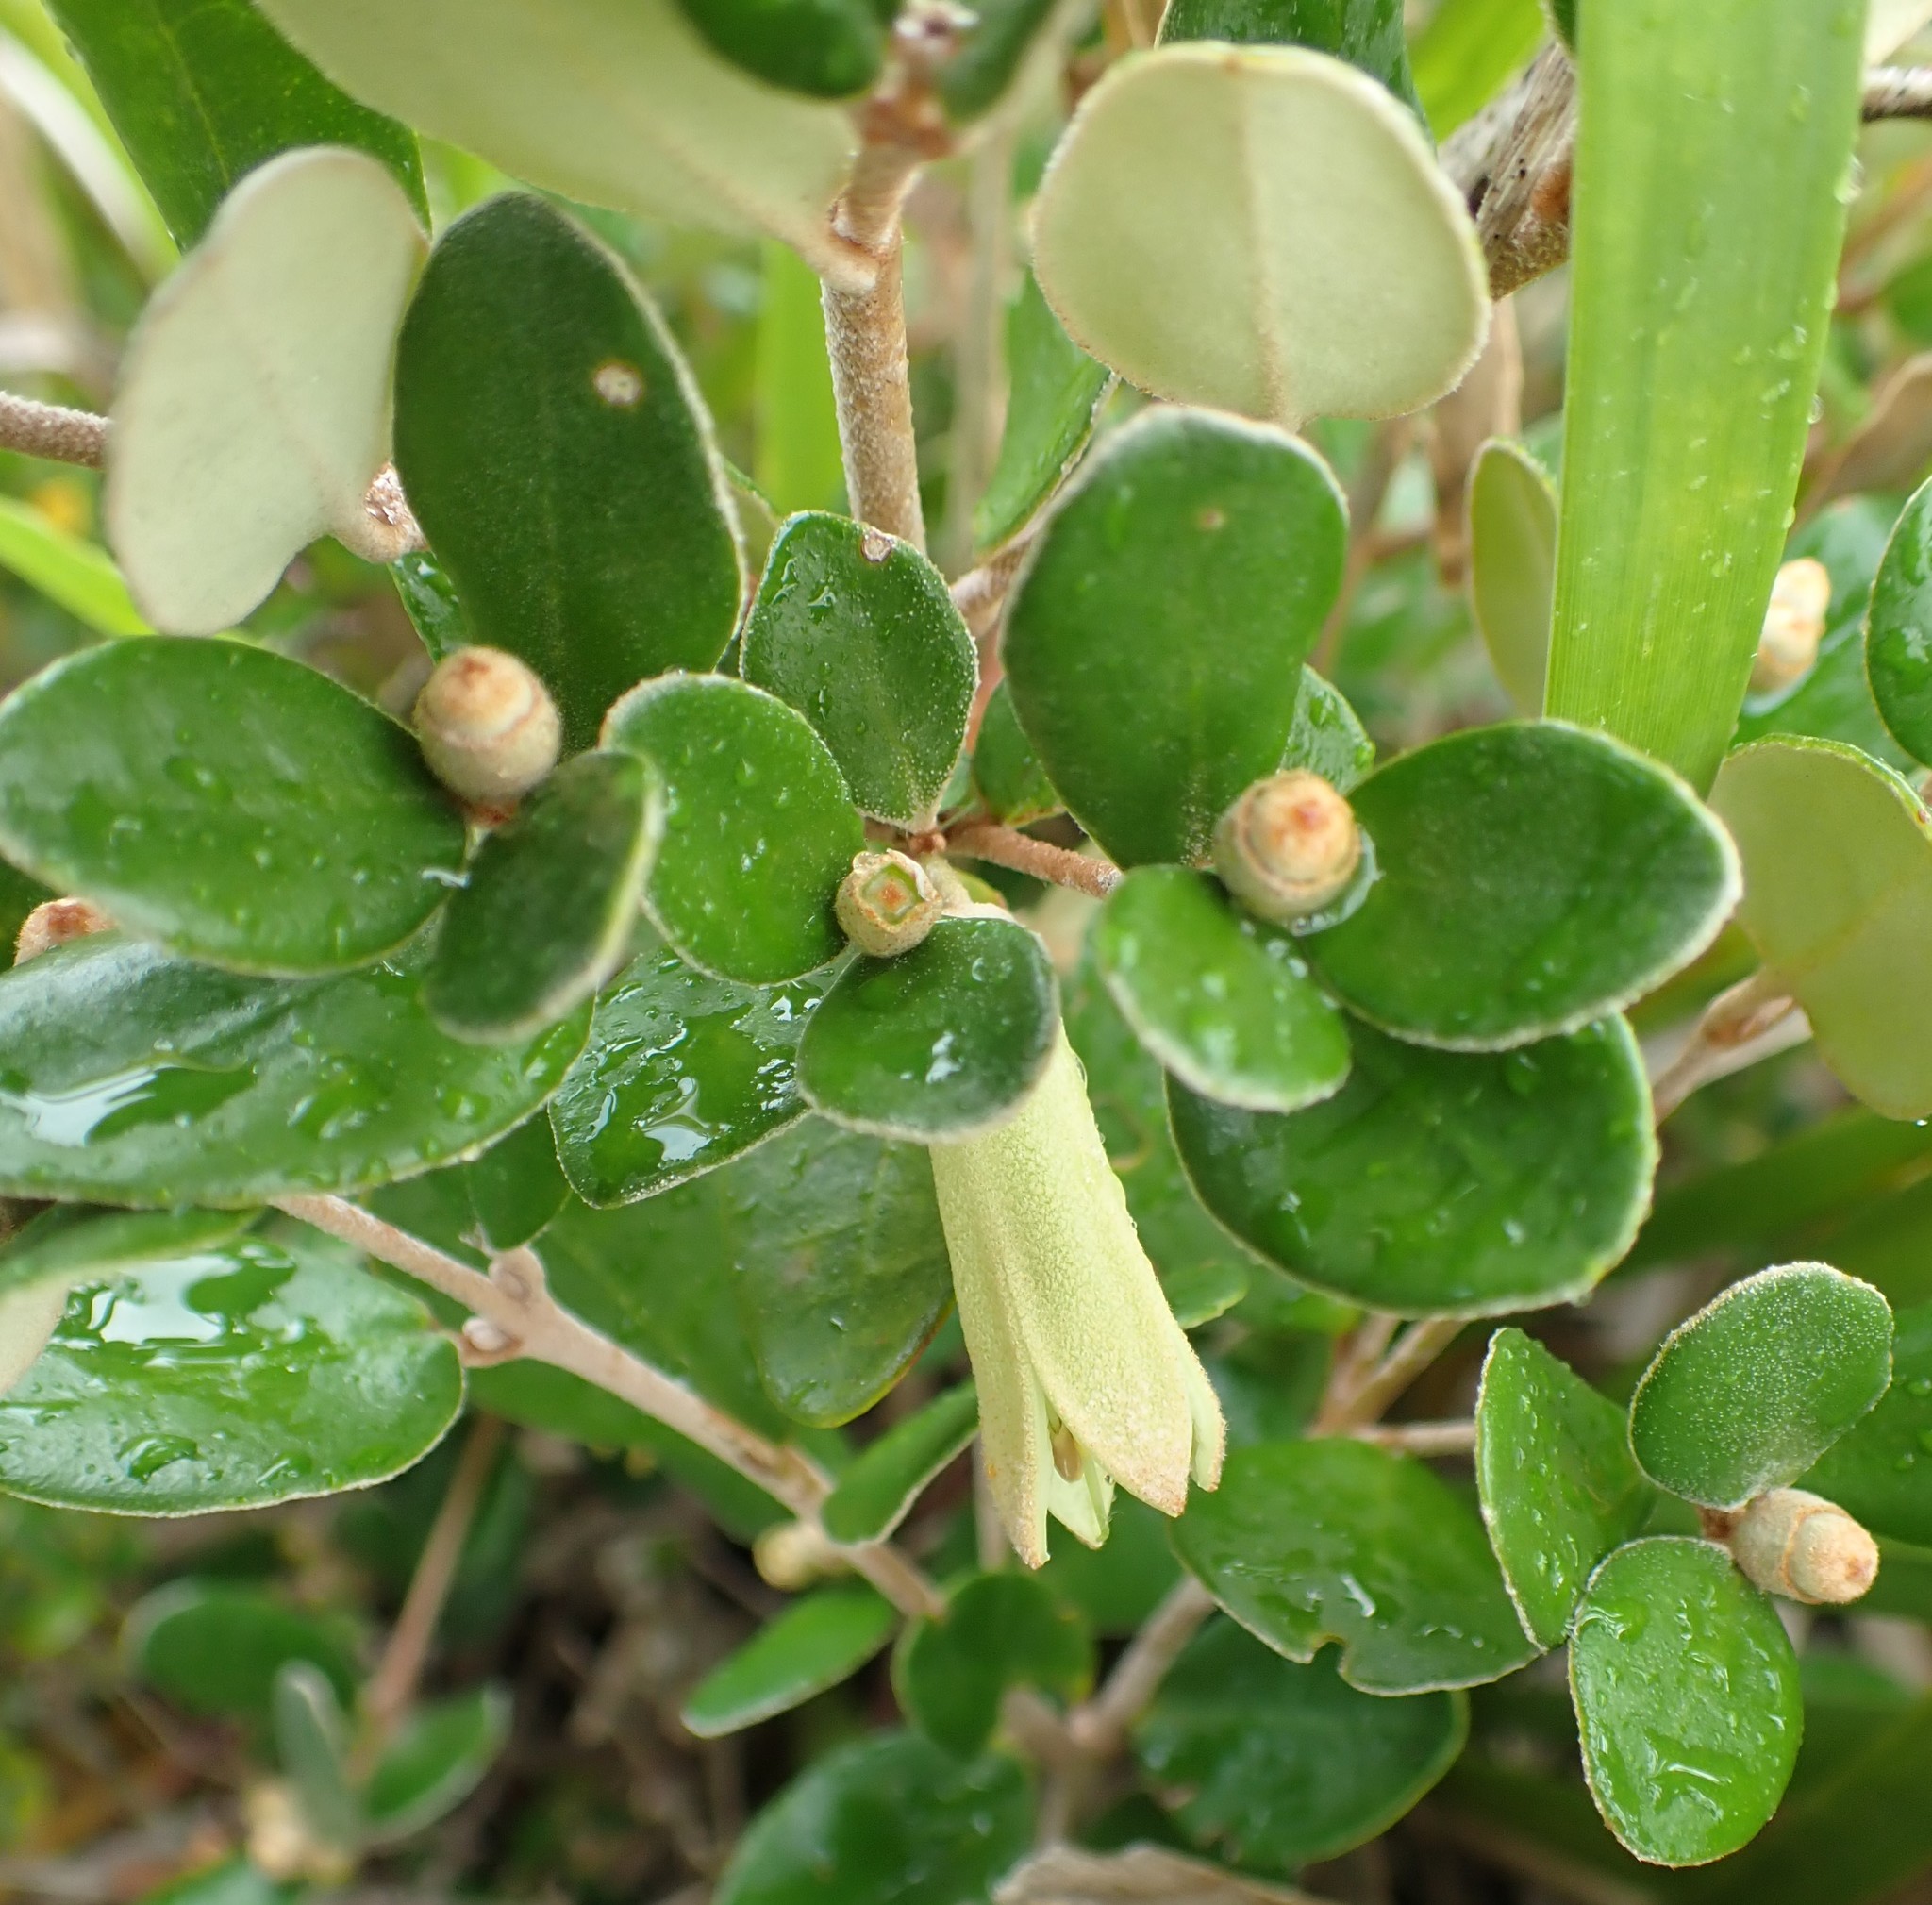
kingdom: Plantae
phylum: Tracheophyta
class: Magnoliopsida
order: Sapindales
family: Rutaceae
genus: Correa
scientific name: Correa backhouseana
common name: Tasmanian-fuchsia
